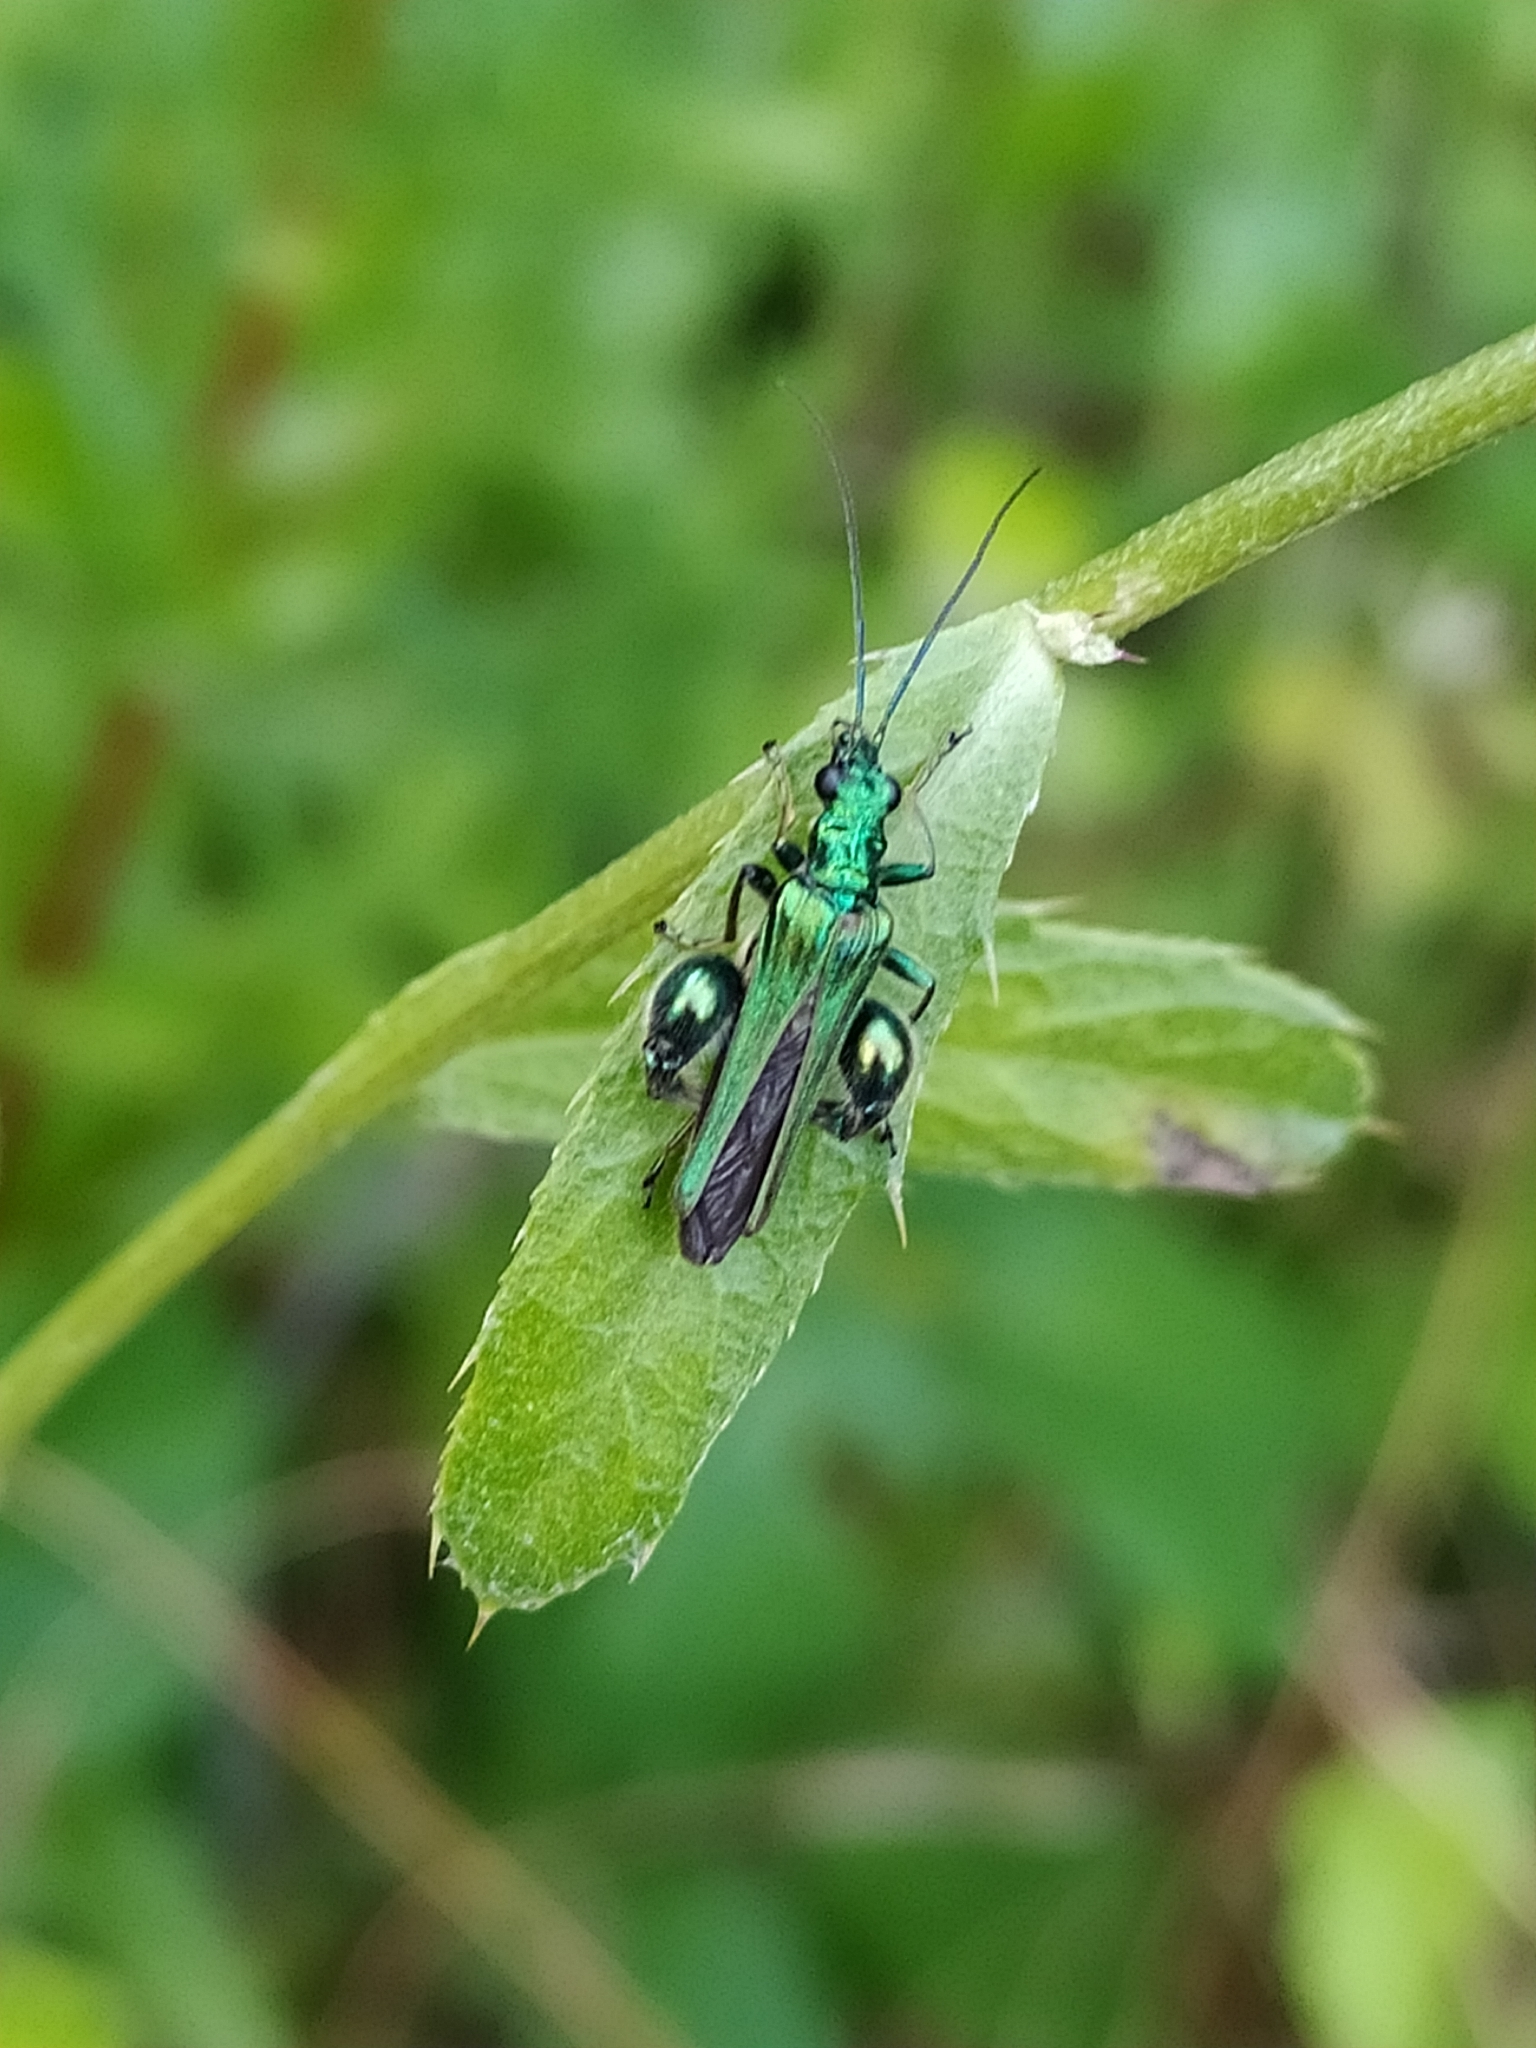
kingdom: Animalia
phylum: Arthropoda
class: Insecta
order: Coleoptera
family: Oedemeridae
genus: Oedemera
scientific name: Oedemera nobilis
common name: Swollen-thighed beetle
